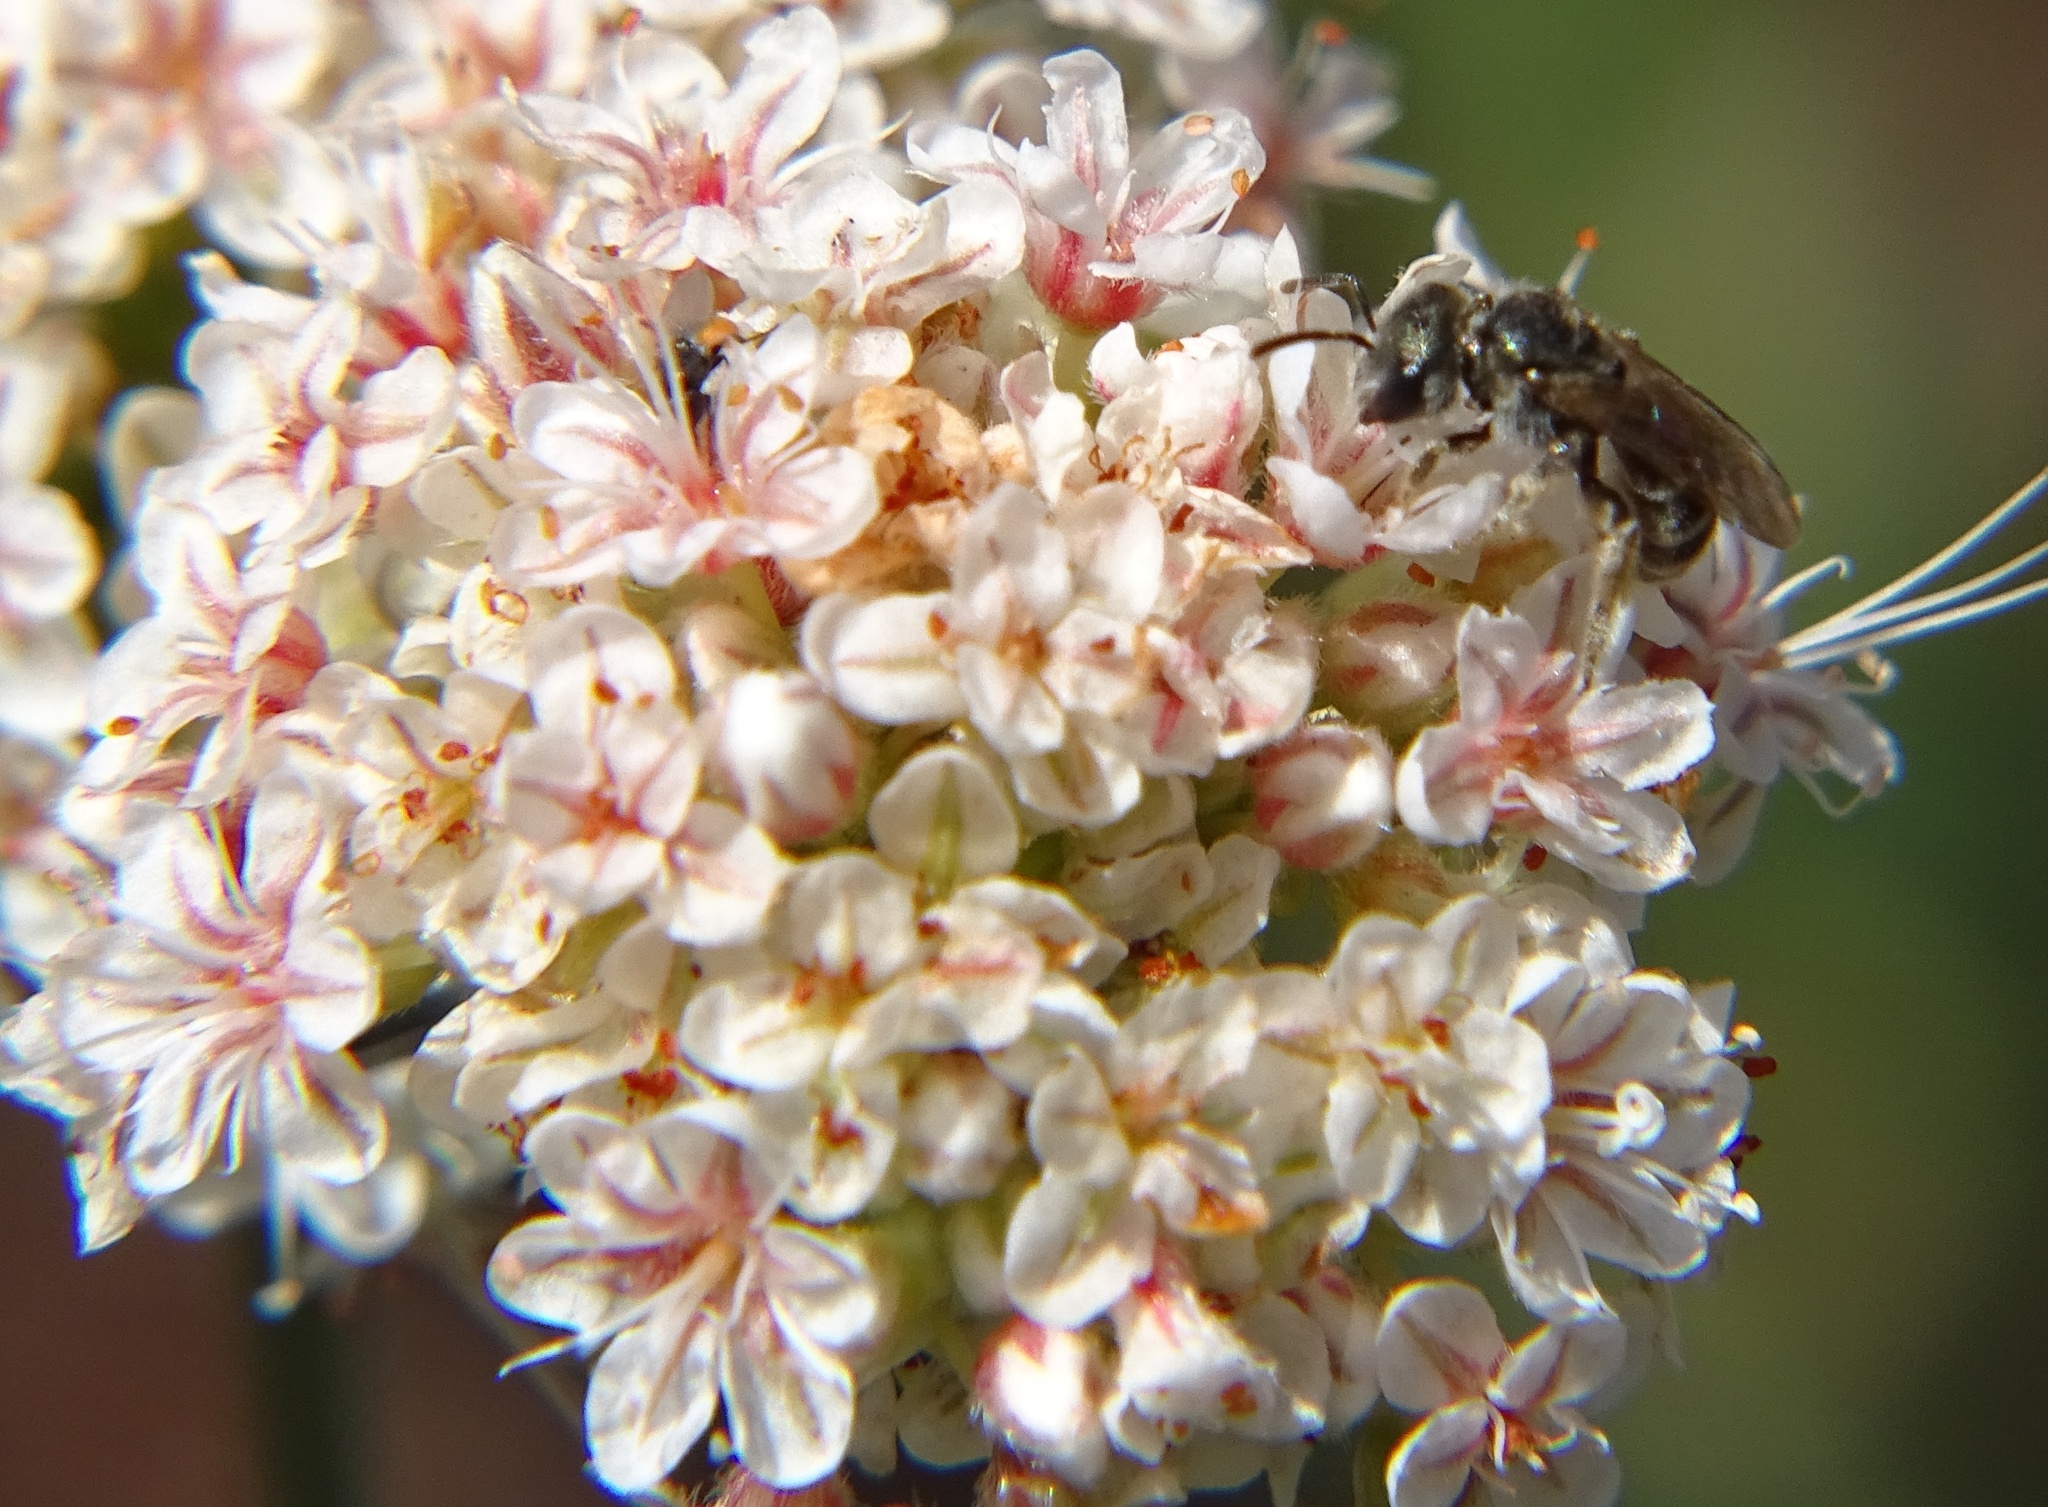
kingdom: Animalia
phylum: Arthropoda
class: Insecta
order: Hymenoptera
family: Halictidae
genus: Halictus
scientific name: Halictus tripartitus
